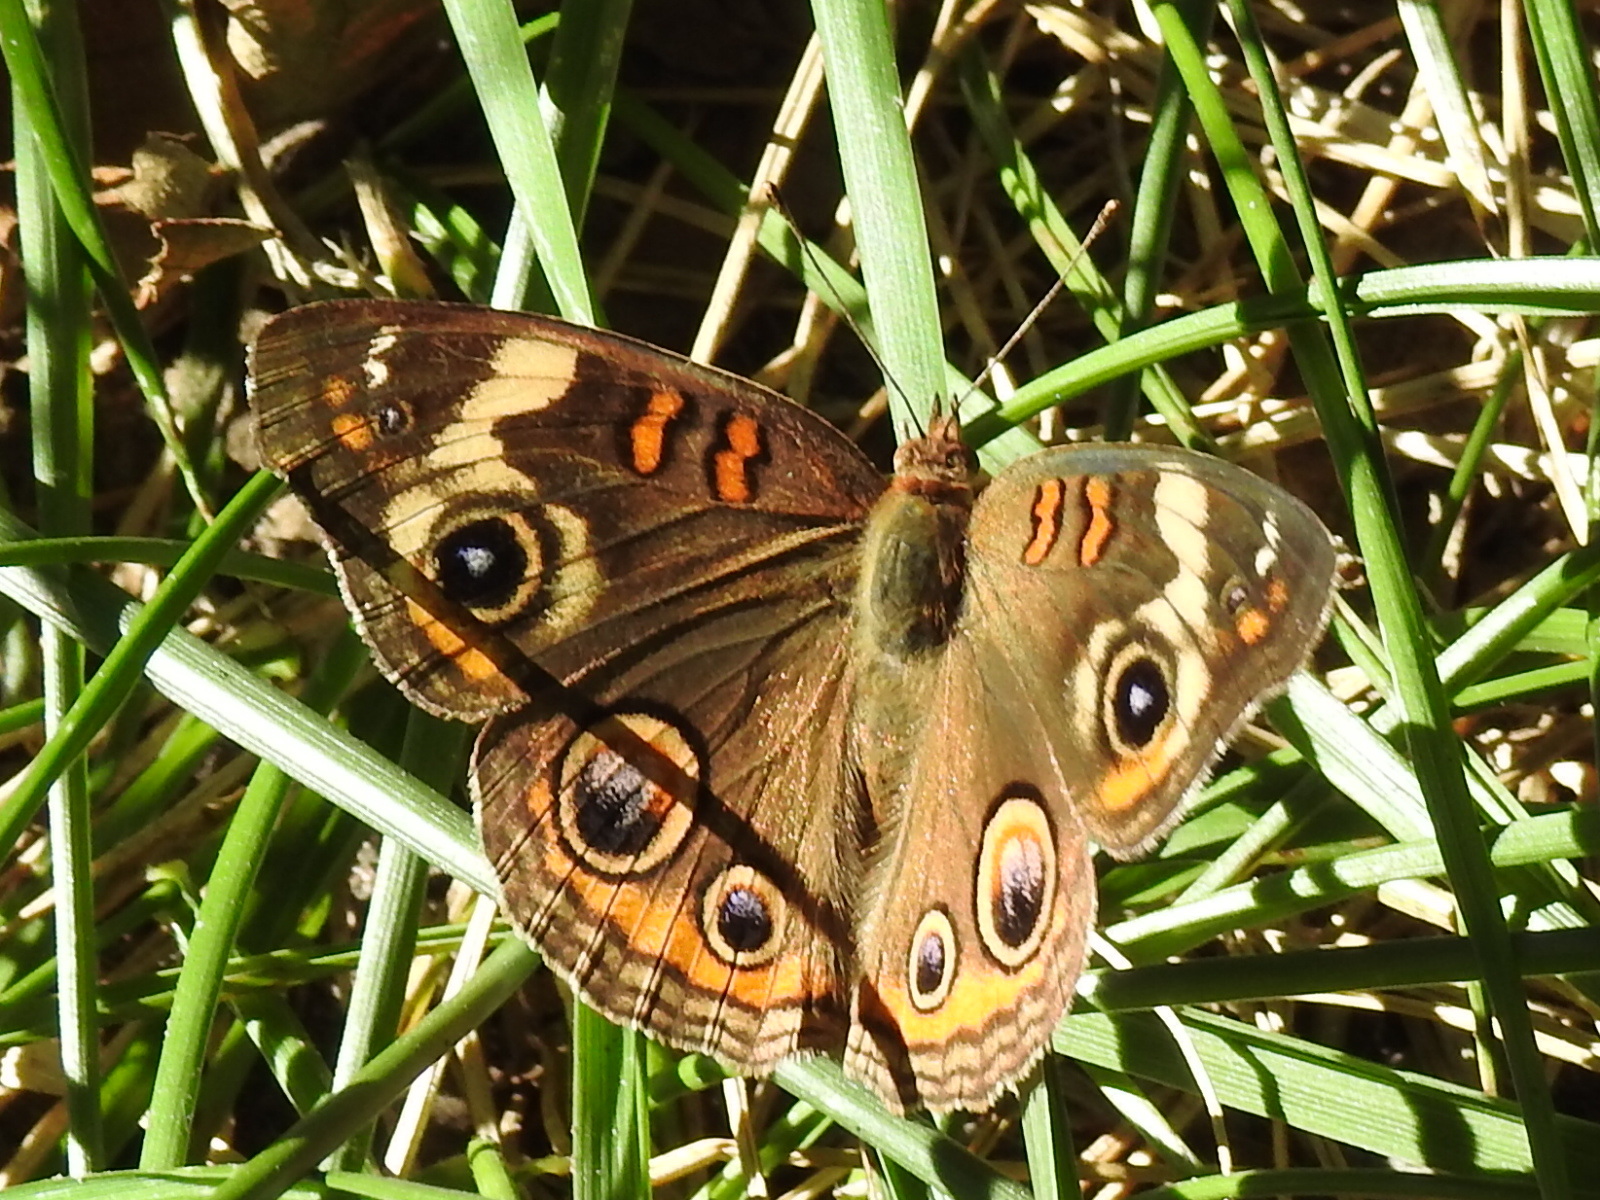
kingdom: Animalia
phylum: Arthropoda
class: Insecta
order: Lepidoptera
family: Nymphalidae
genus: Junonia
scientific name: Junonia coenia
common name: Common buckeye
